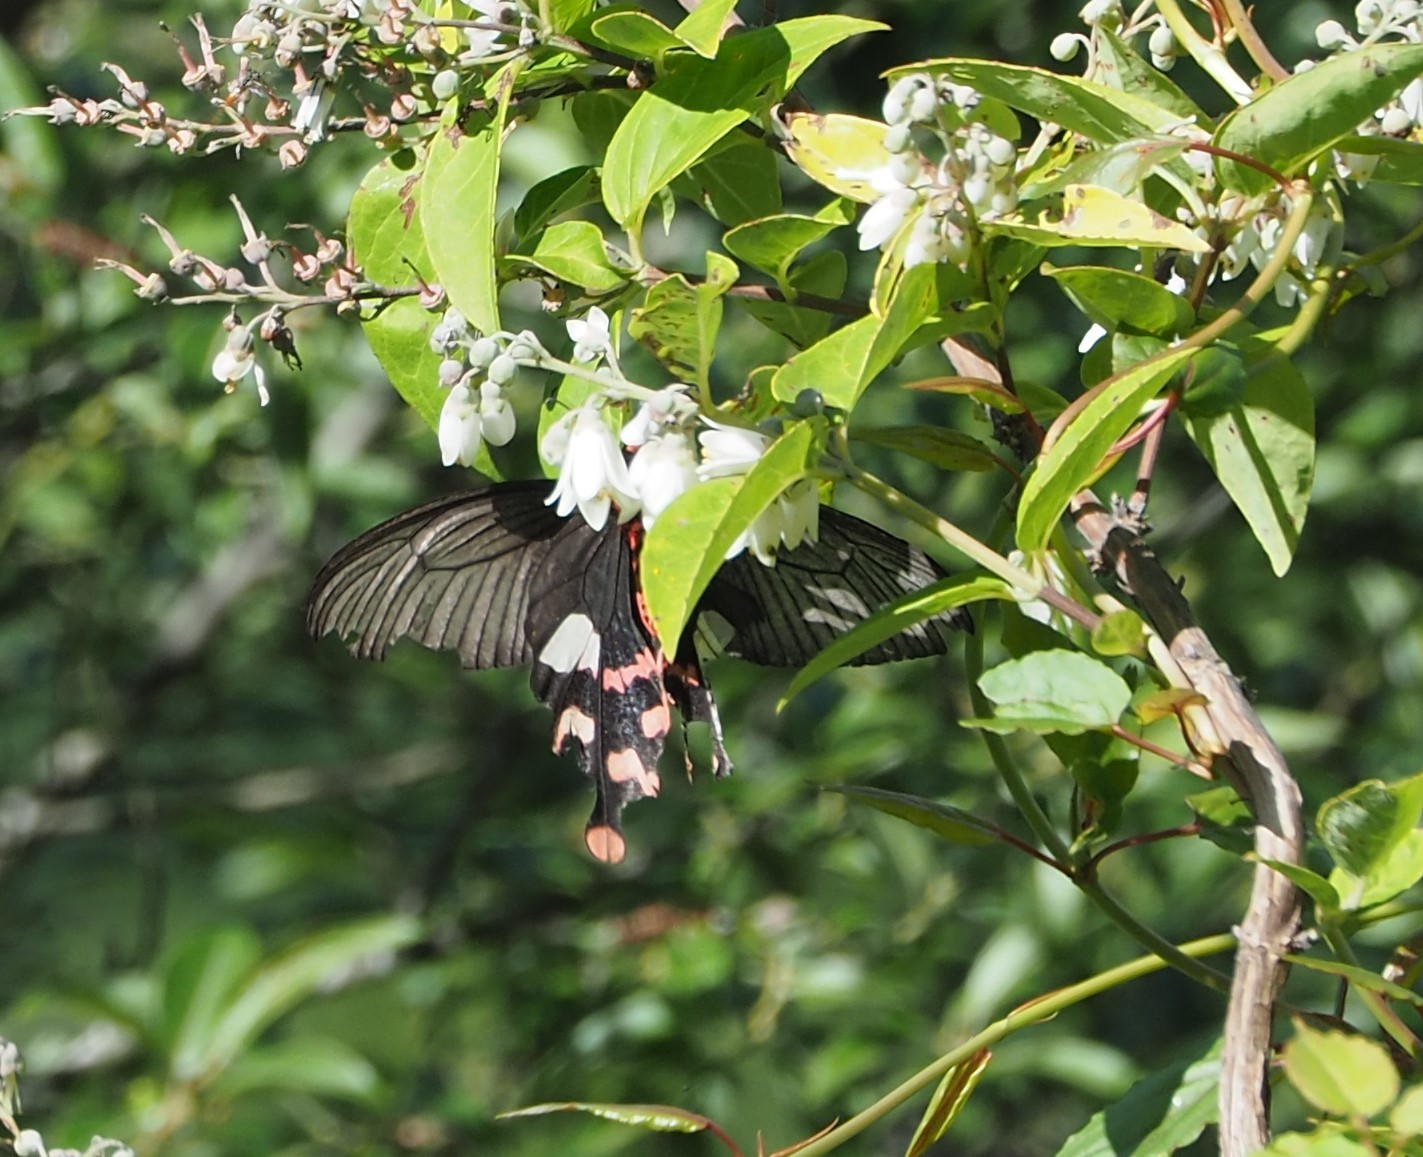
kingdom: Animalia
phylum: Arthropoda
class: Insecta
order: Lepidoptera
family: Papilionidae
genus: Byasa
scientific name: Byasa polyeuctes
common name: Common windmill
